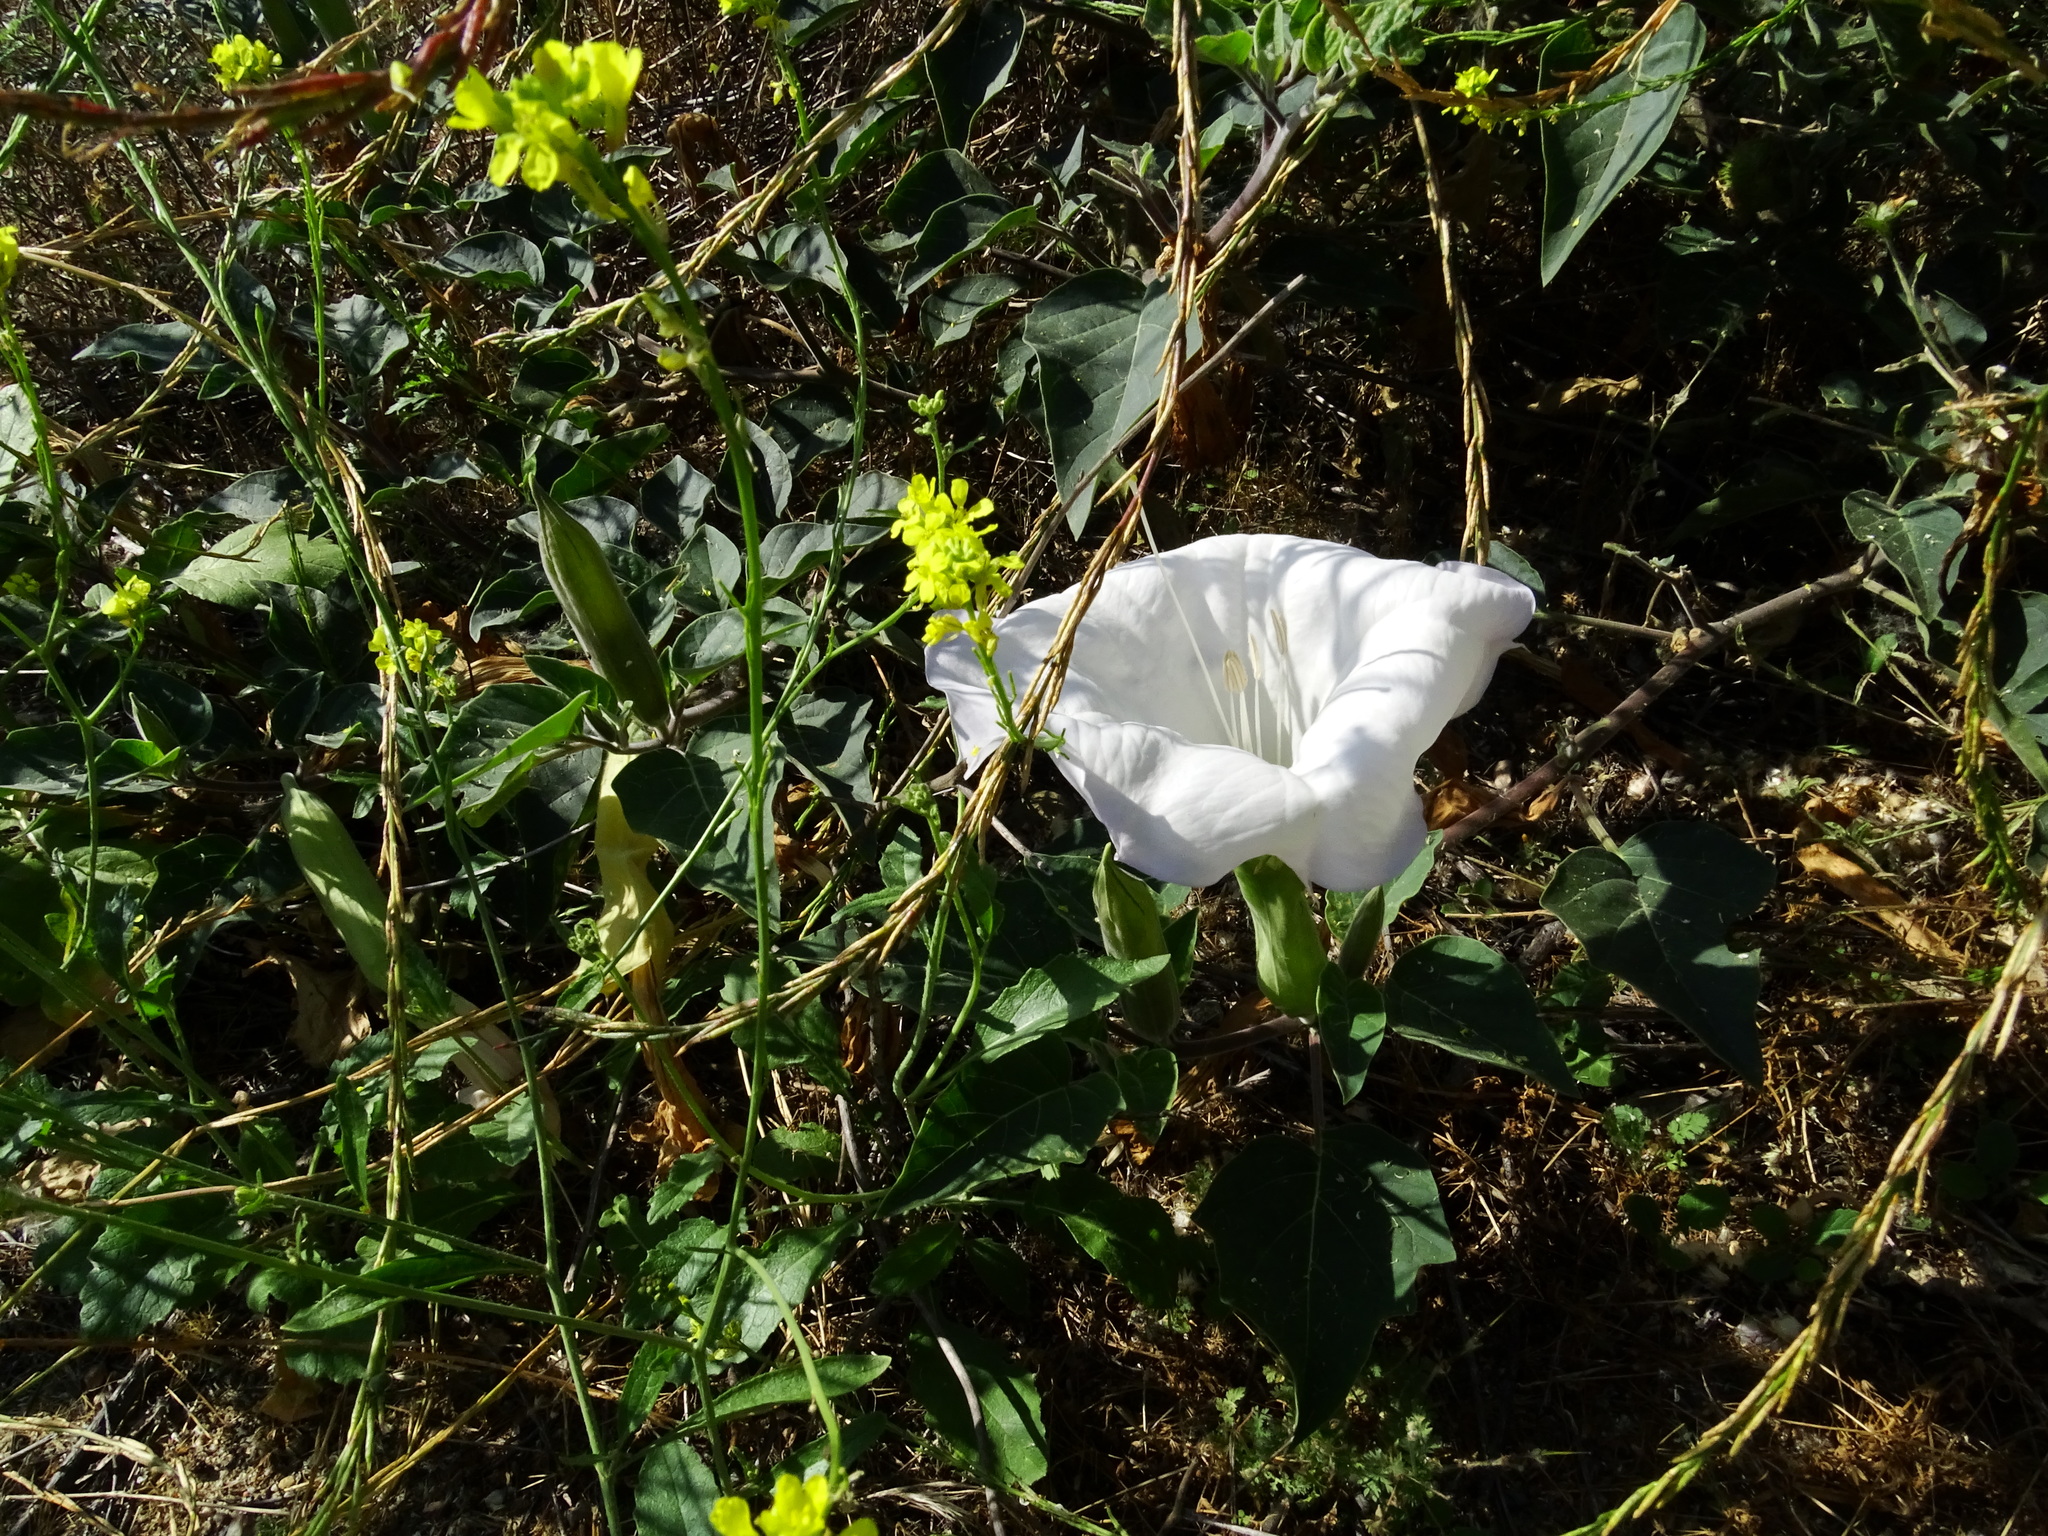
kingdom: Plantae
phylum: Tracheophyta
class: Magnoliopsida
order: Solanales
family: Solanaceae
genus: Datura
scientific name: Datura wrightii
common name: Sacred thorn-apple
